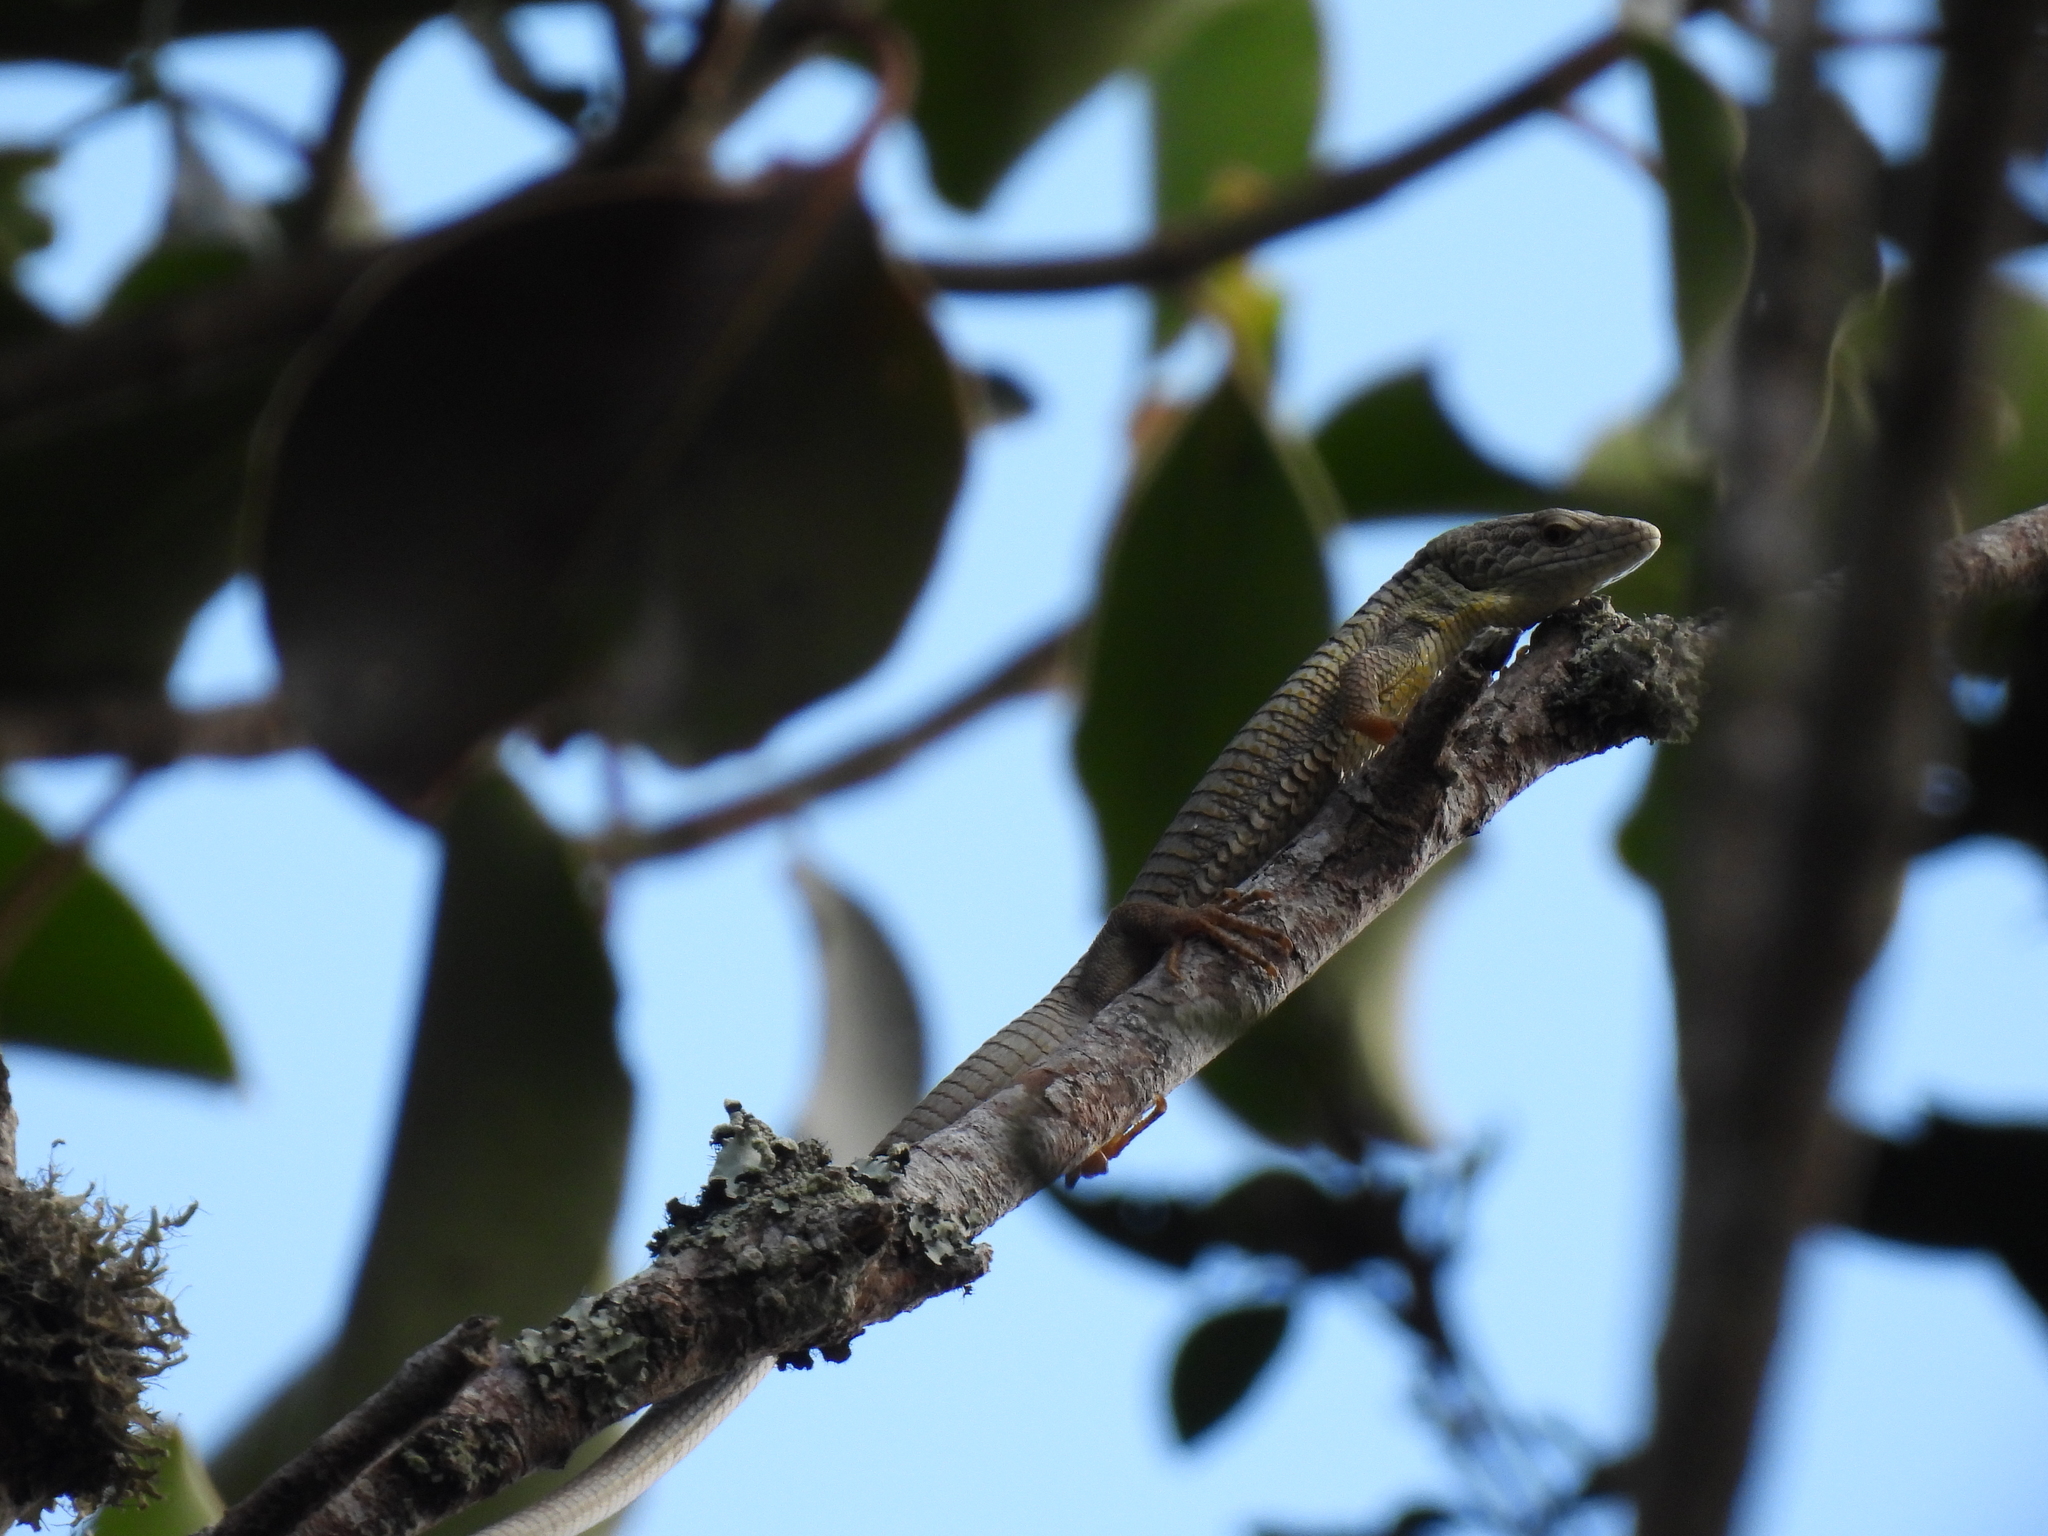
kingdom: Animalia
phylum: Chordata
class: Squamata
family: Anguidae
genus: Abronia
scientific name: Abronia morenica
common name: Sierra morena arboreal alligator lizards
